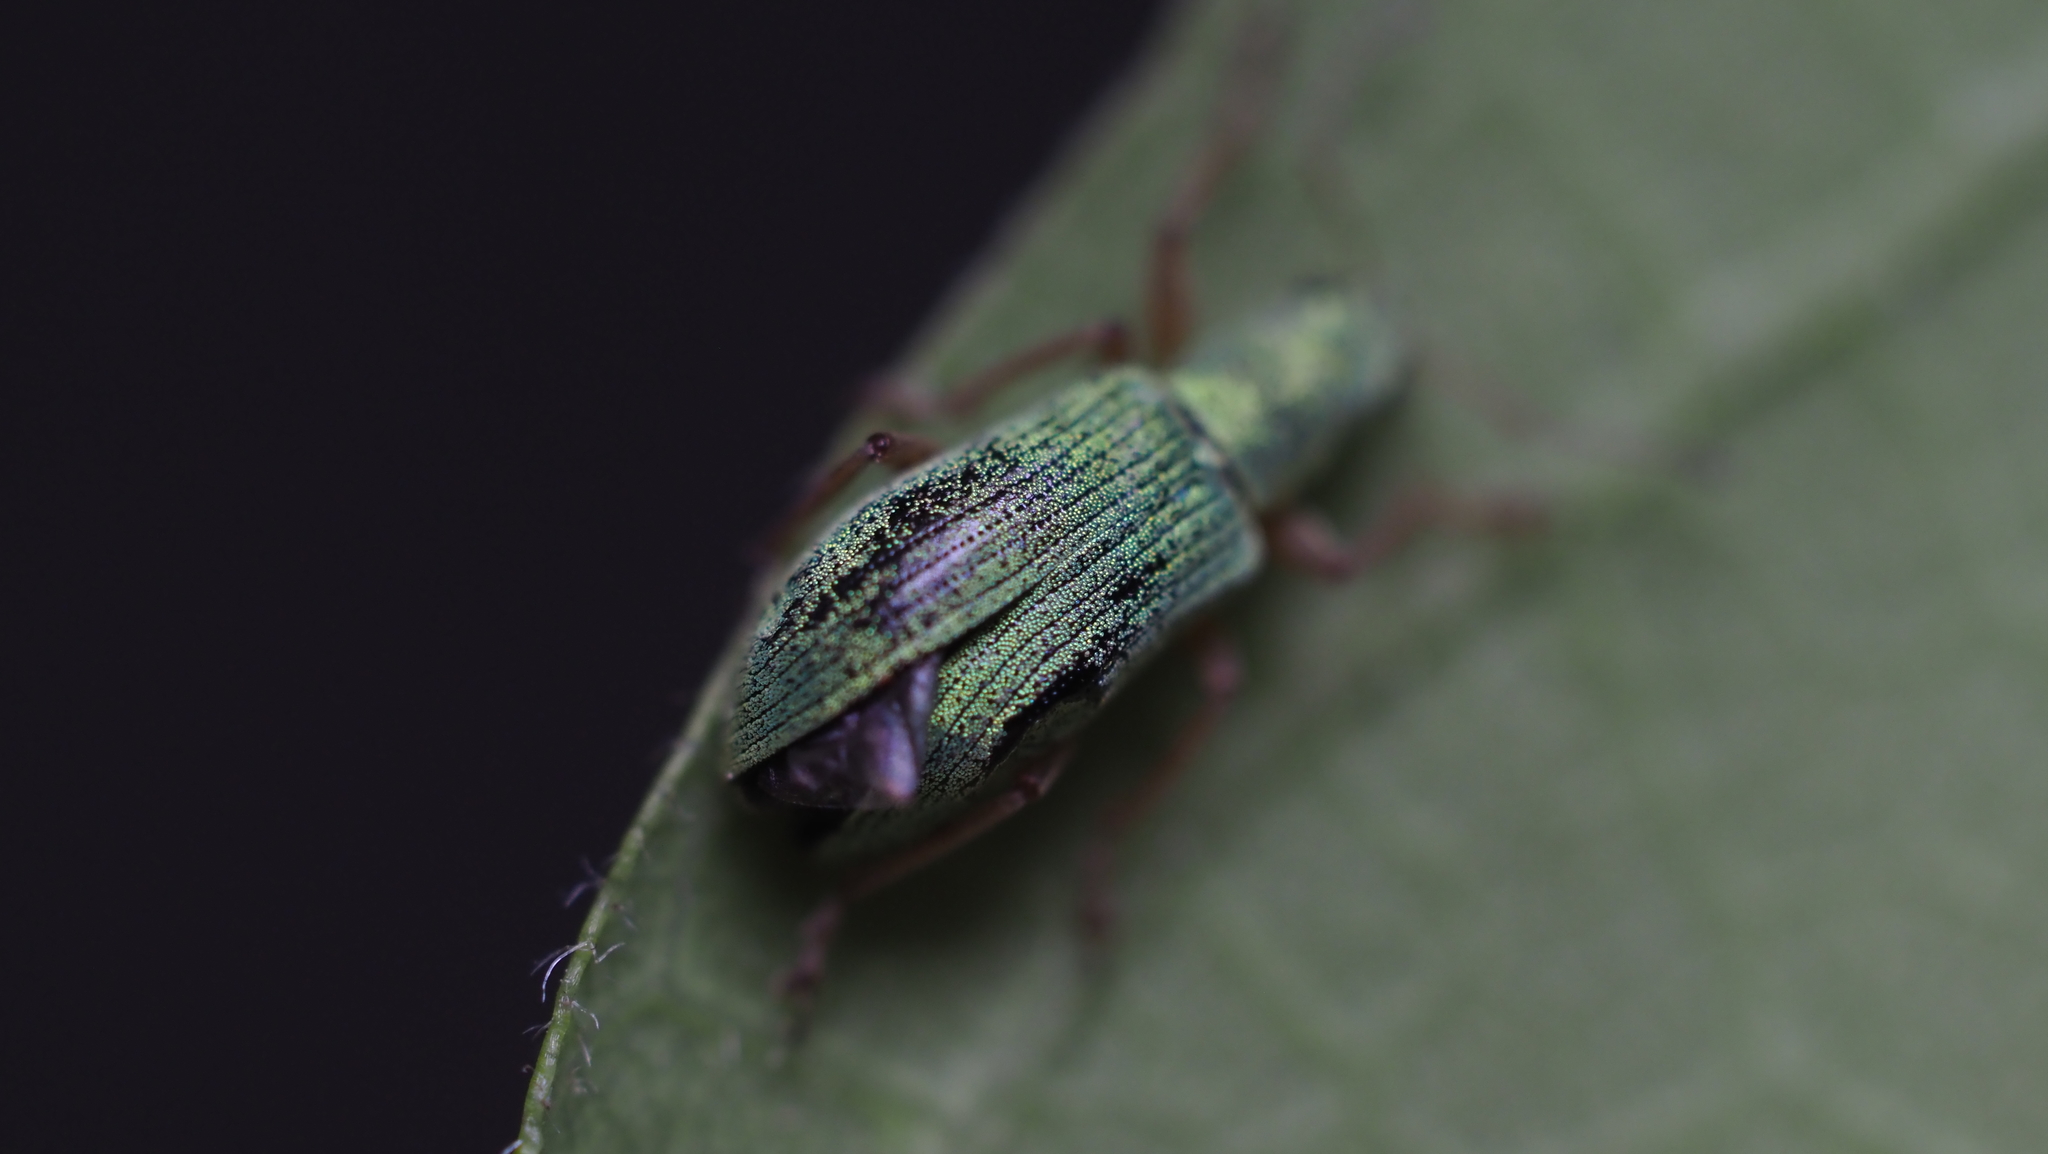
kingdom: Animalia
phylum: Arthropoda
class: Insecta
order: Coleoptera
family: Curculionidae
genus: Polydrusus
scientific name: Polydrusus impressifrons
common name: Weevil
